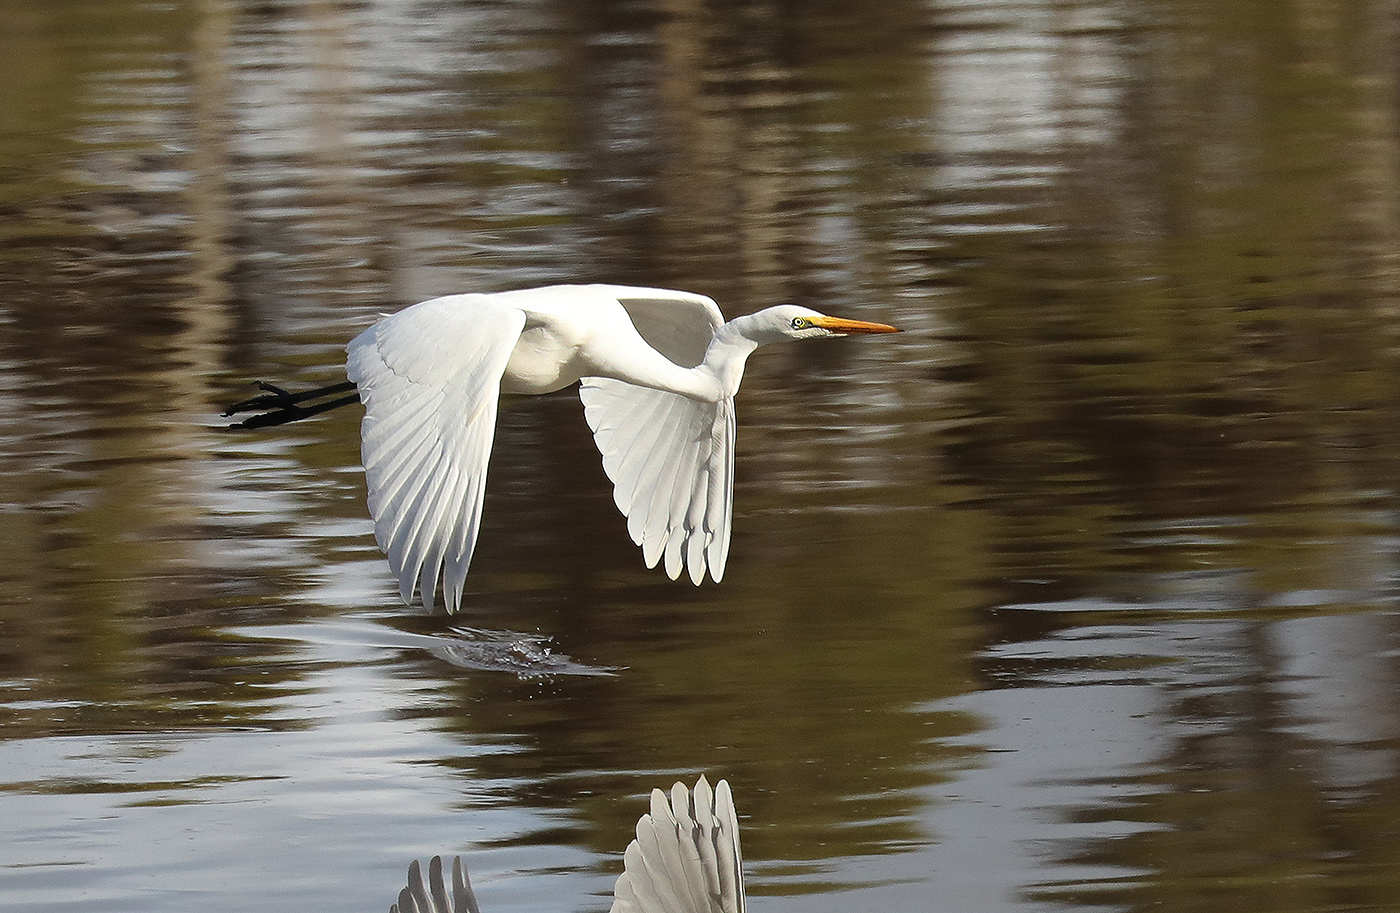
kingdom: Animalia
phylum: Chordata
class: Aves
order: Pelecaniformes
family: Ardeidae
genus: Ardea
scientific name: Ardea modesta
